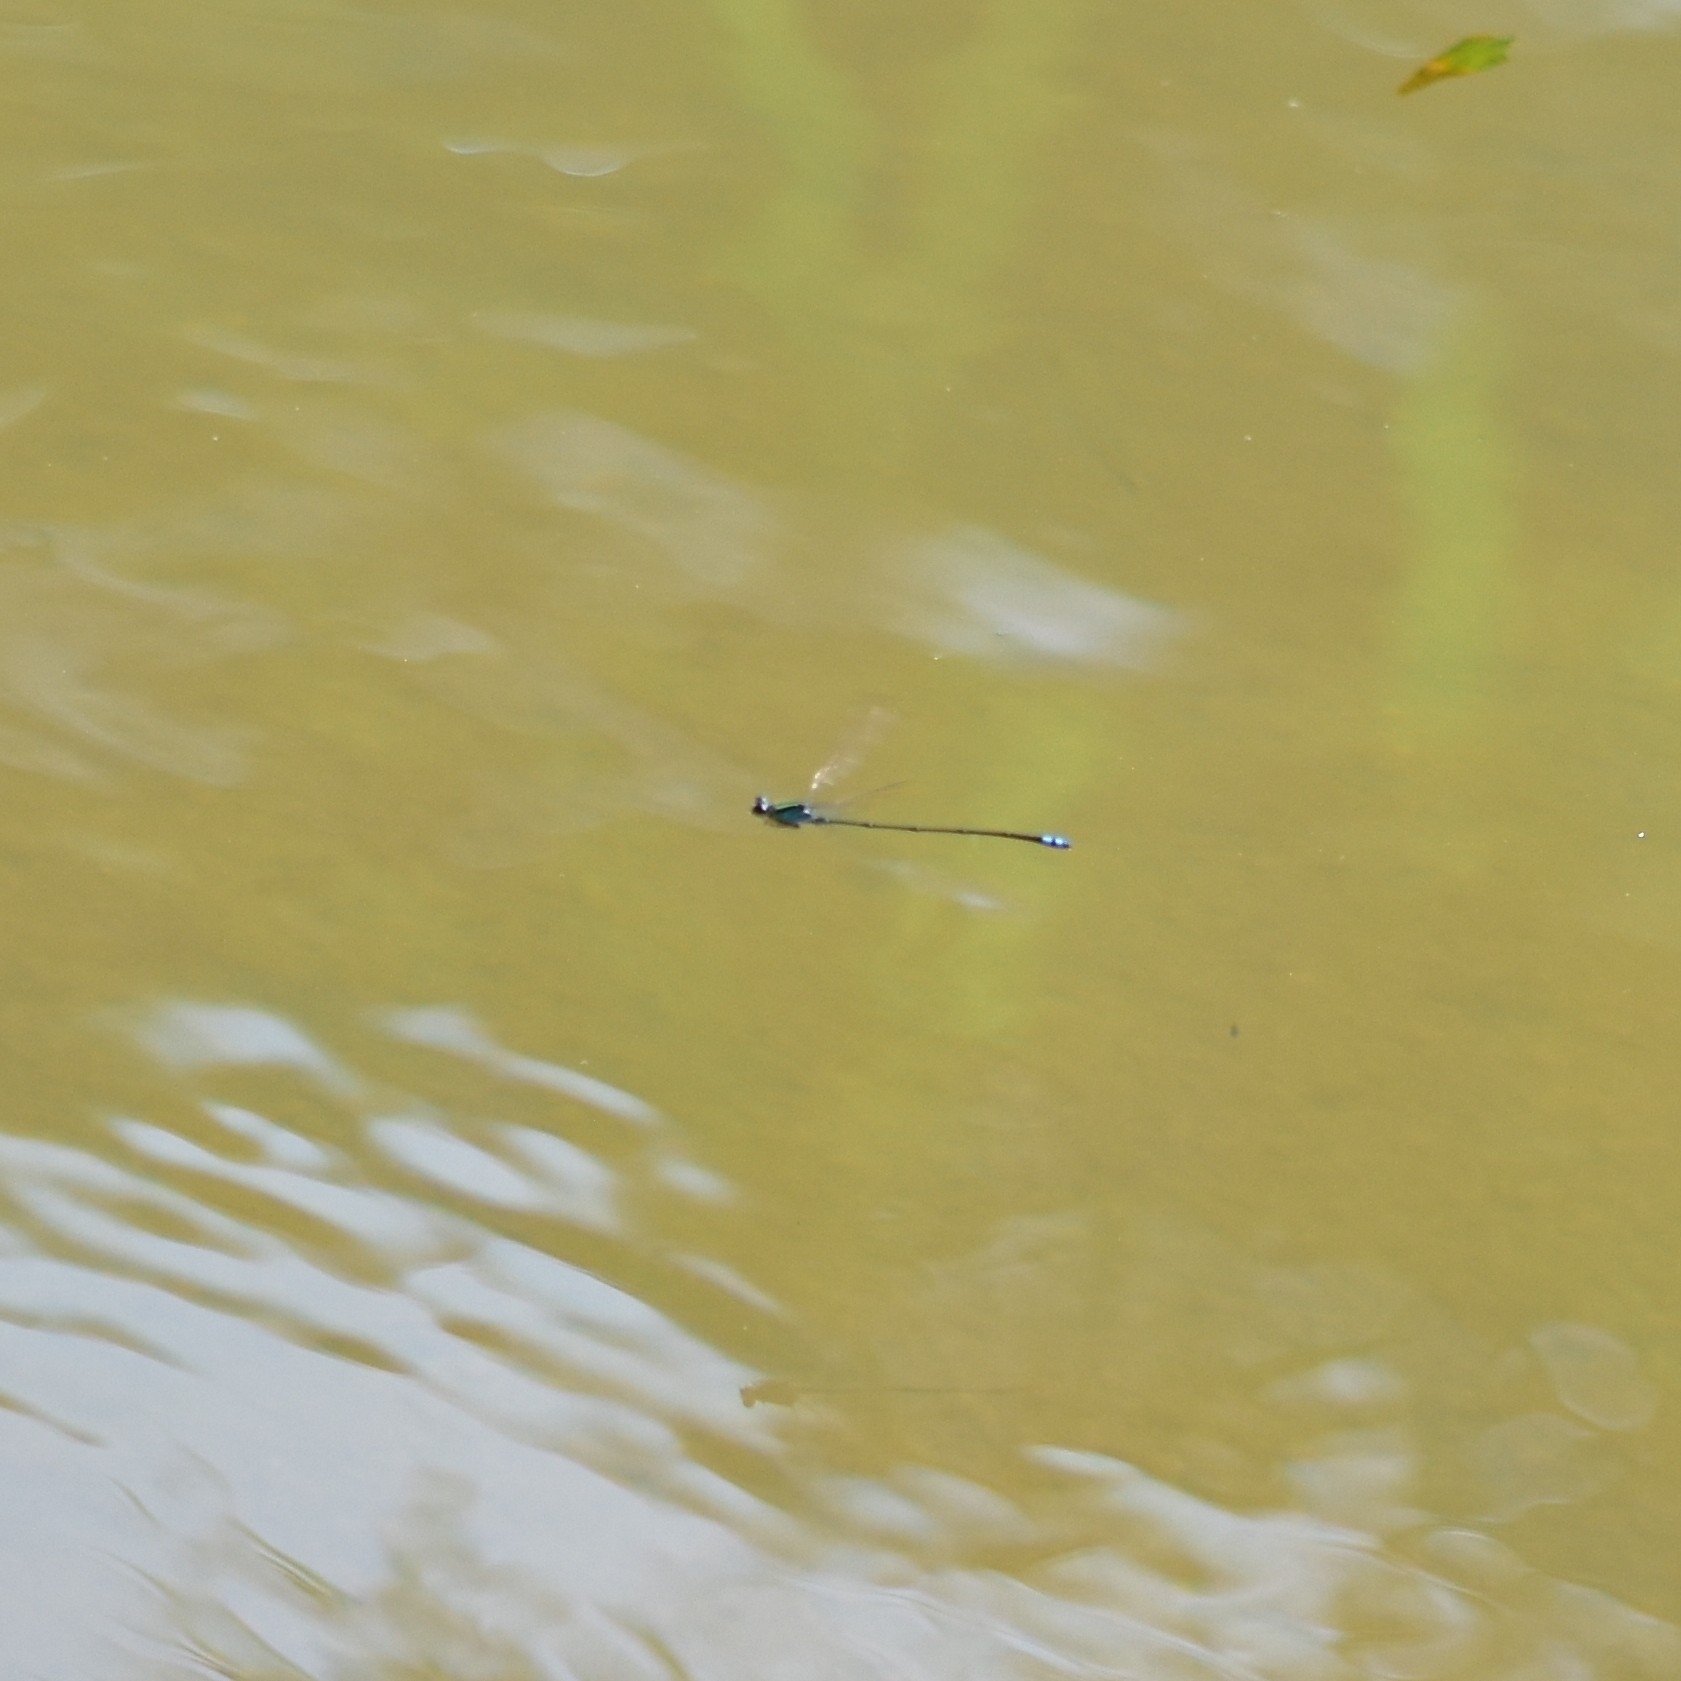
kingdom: Animalia
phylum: Arthropoda
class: Insecta
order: Odonata
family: Coenagrionidae
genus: Pseudagrion
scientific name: Pseudagrion indicum
